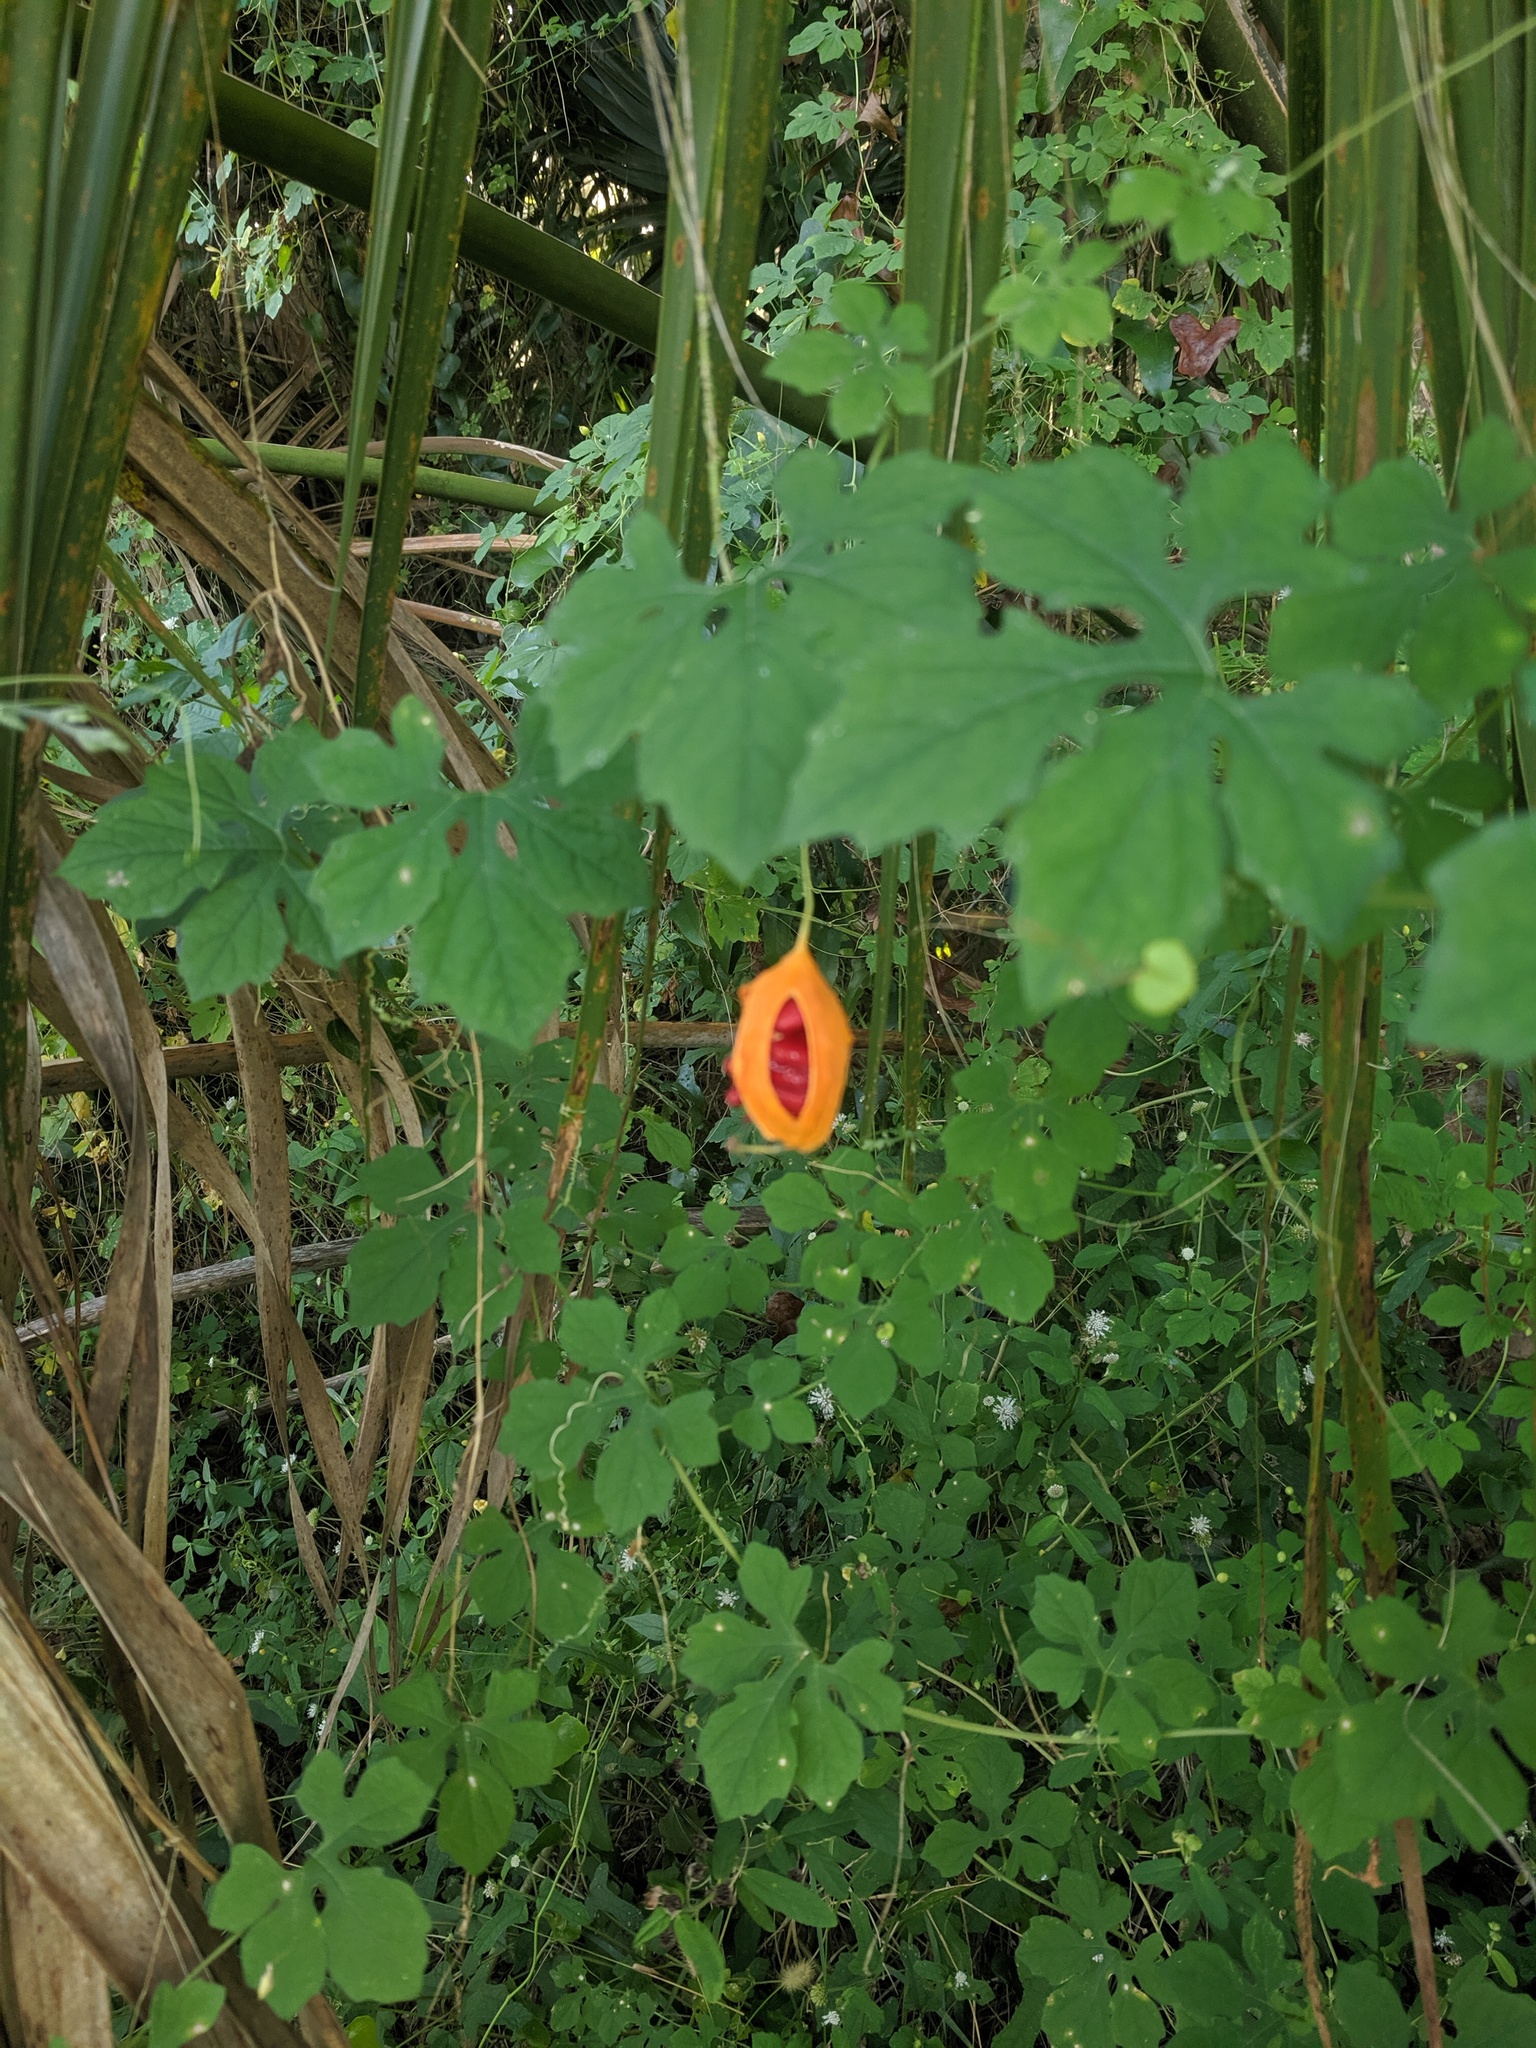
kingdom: Plantae
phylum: Tracheophyta
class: Magnoliopsida
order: Cucurbitales
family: Cucurbitaceae
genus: Momordica
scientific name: Momordica charantia
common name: Balsampear
